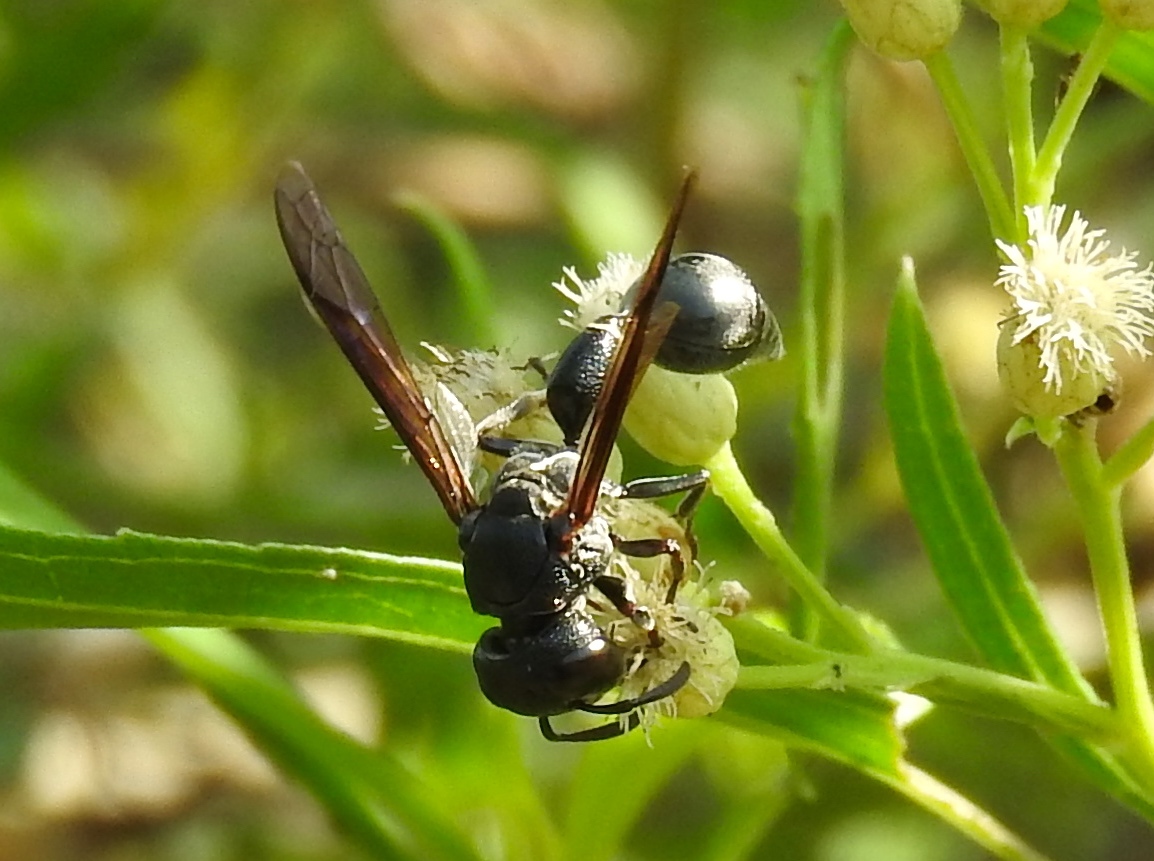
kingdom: Animalia
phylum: Arthropoda
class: Insecta
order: Hymenoptera
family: Eumenidae
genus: Zethus
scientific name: Zethus nigricornis
